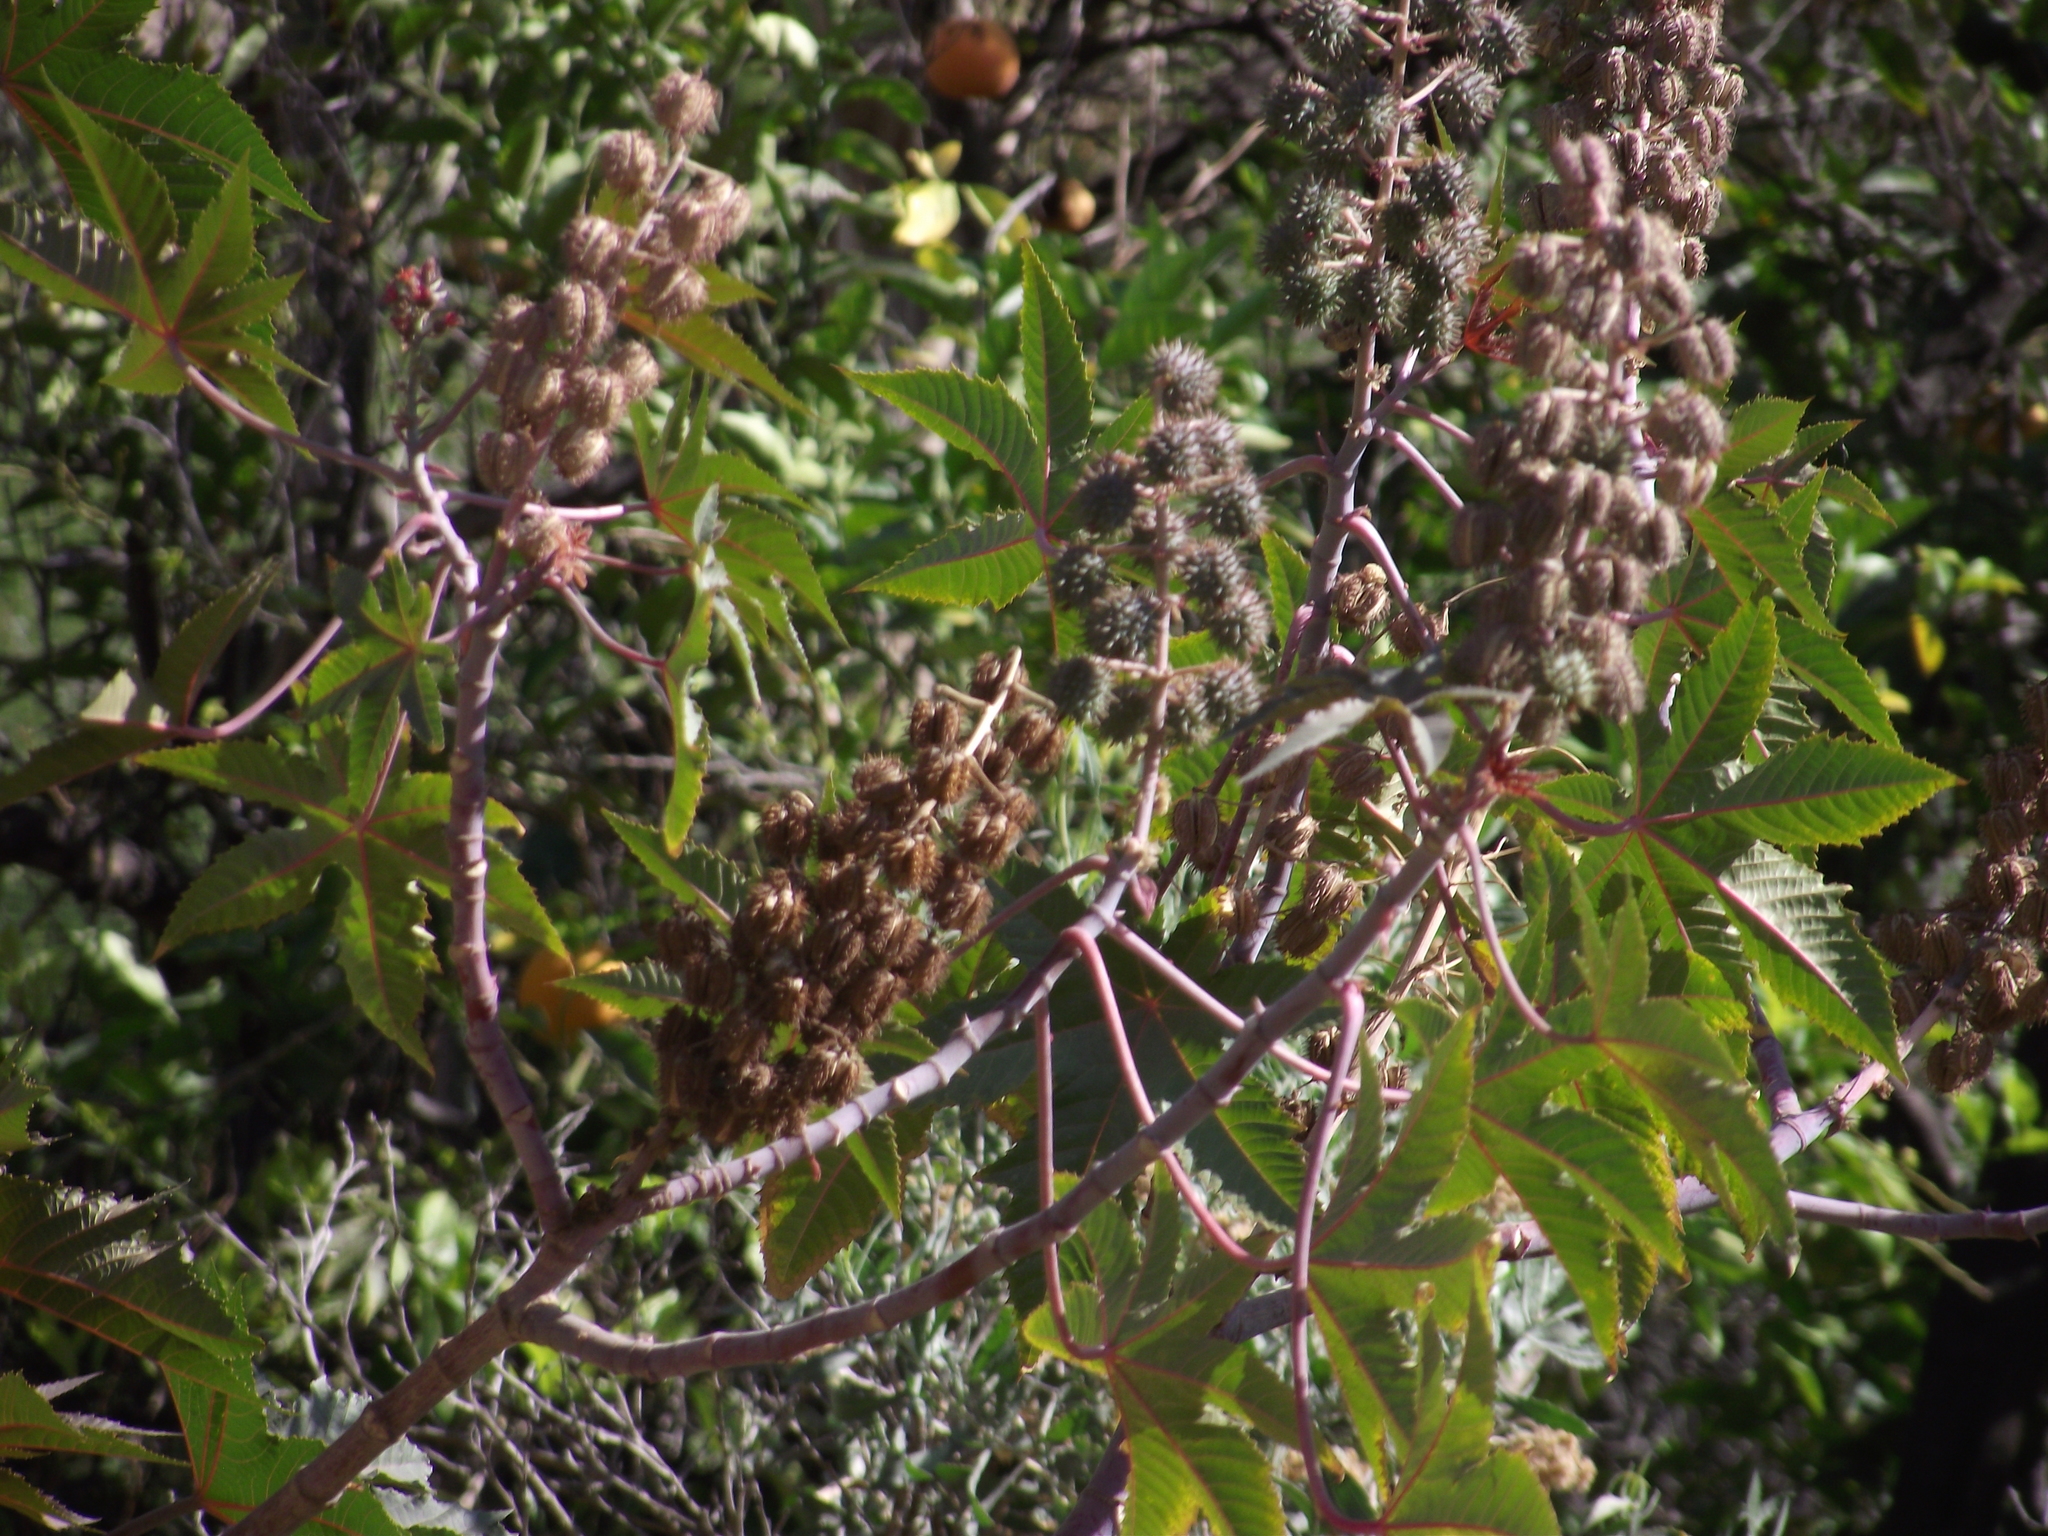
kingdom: Plantae
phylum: Tracheophyta
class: Magnoliopsida
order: Malpighiales
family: Euphorbiaceae
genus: Ricinus
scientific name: Ricinus communis
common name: Castor-oil-plant
